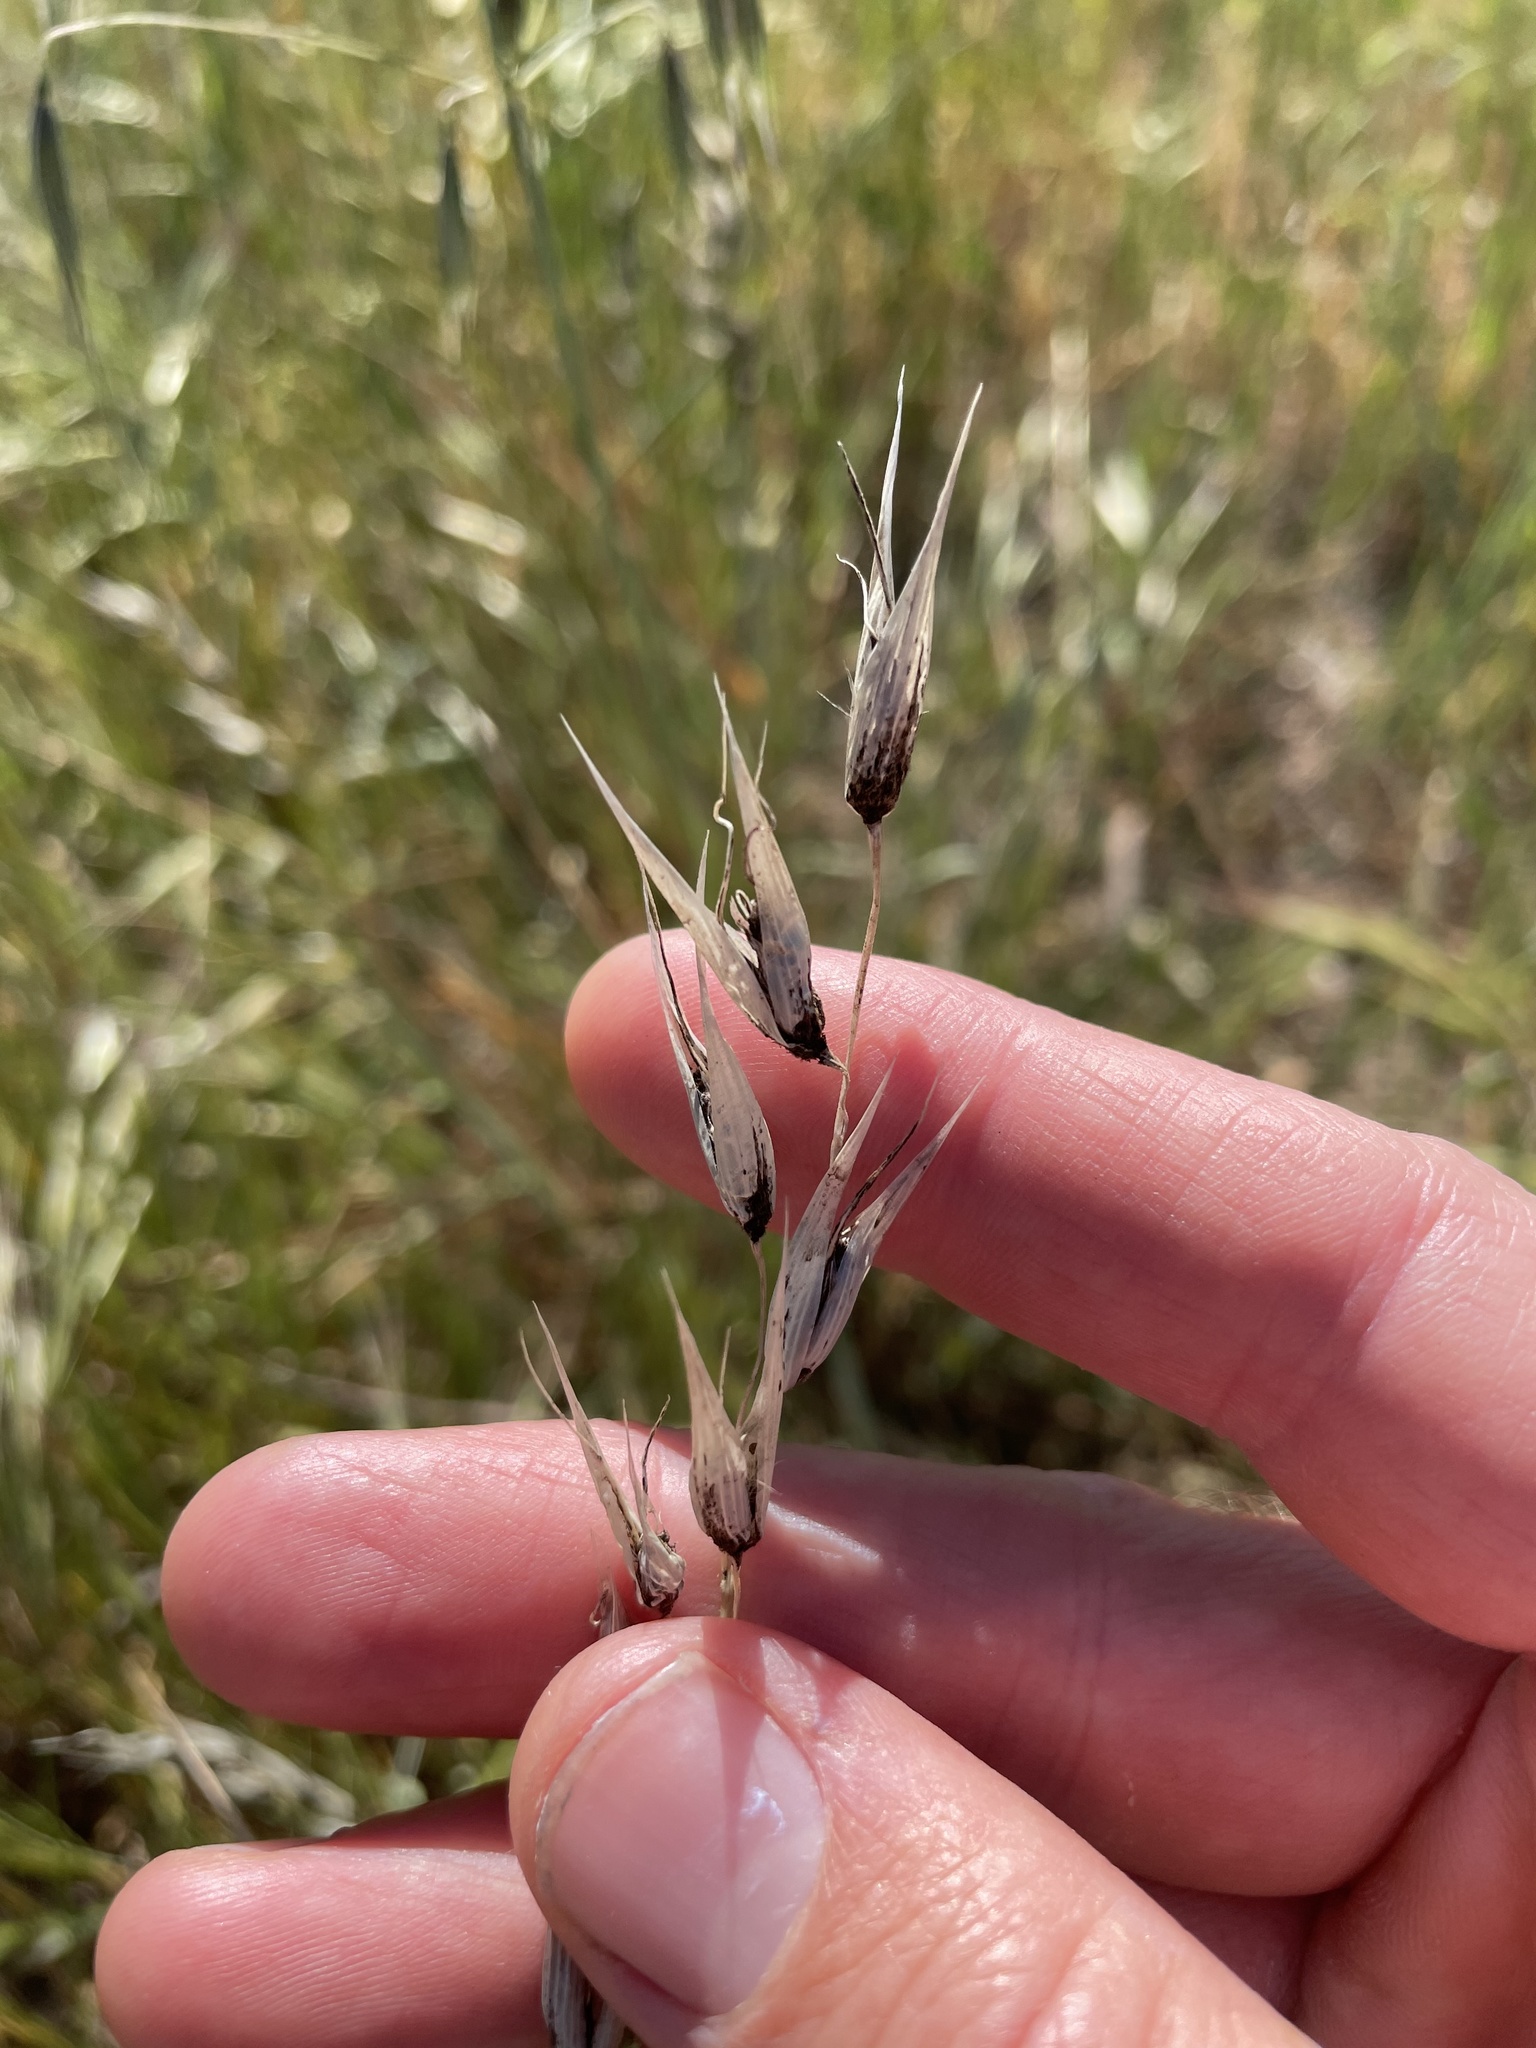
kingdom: Fungi
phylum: Basidiomycota
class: Ustilaginomycetes
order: Ustilaginales
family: Ustilaginaceae
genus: Ustilago
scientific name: Ustilago avenae
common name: Loose smut of oats & oat grass
